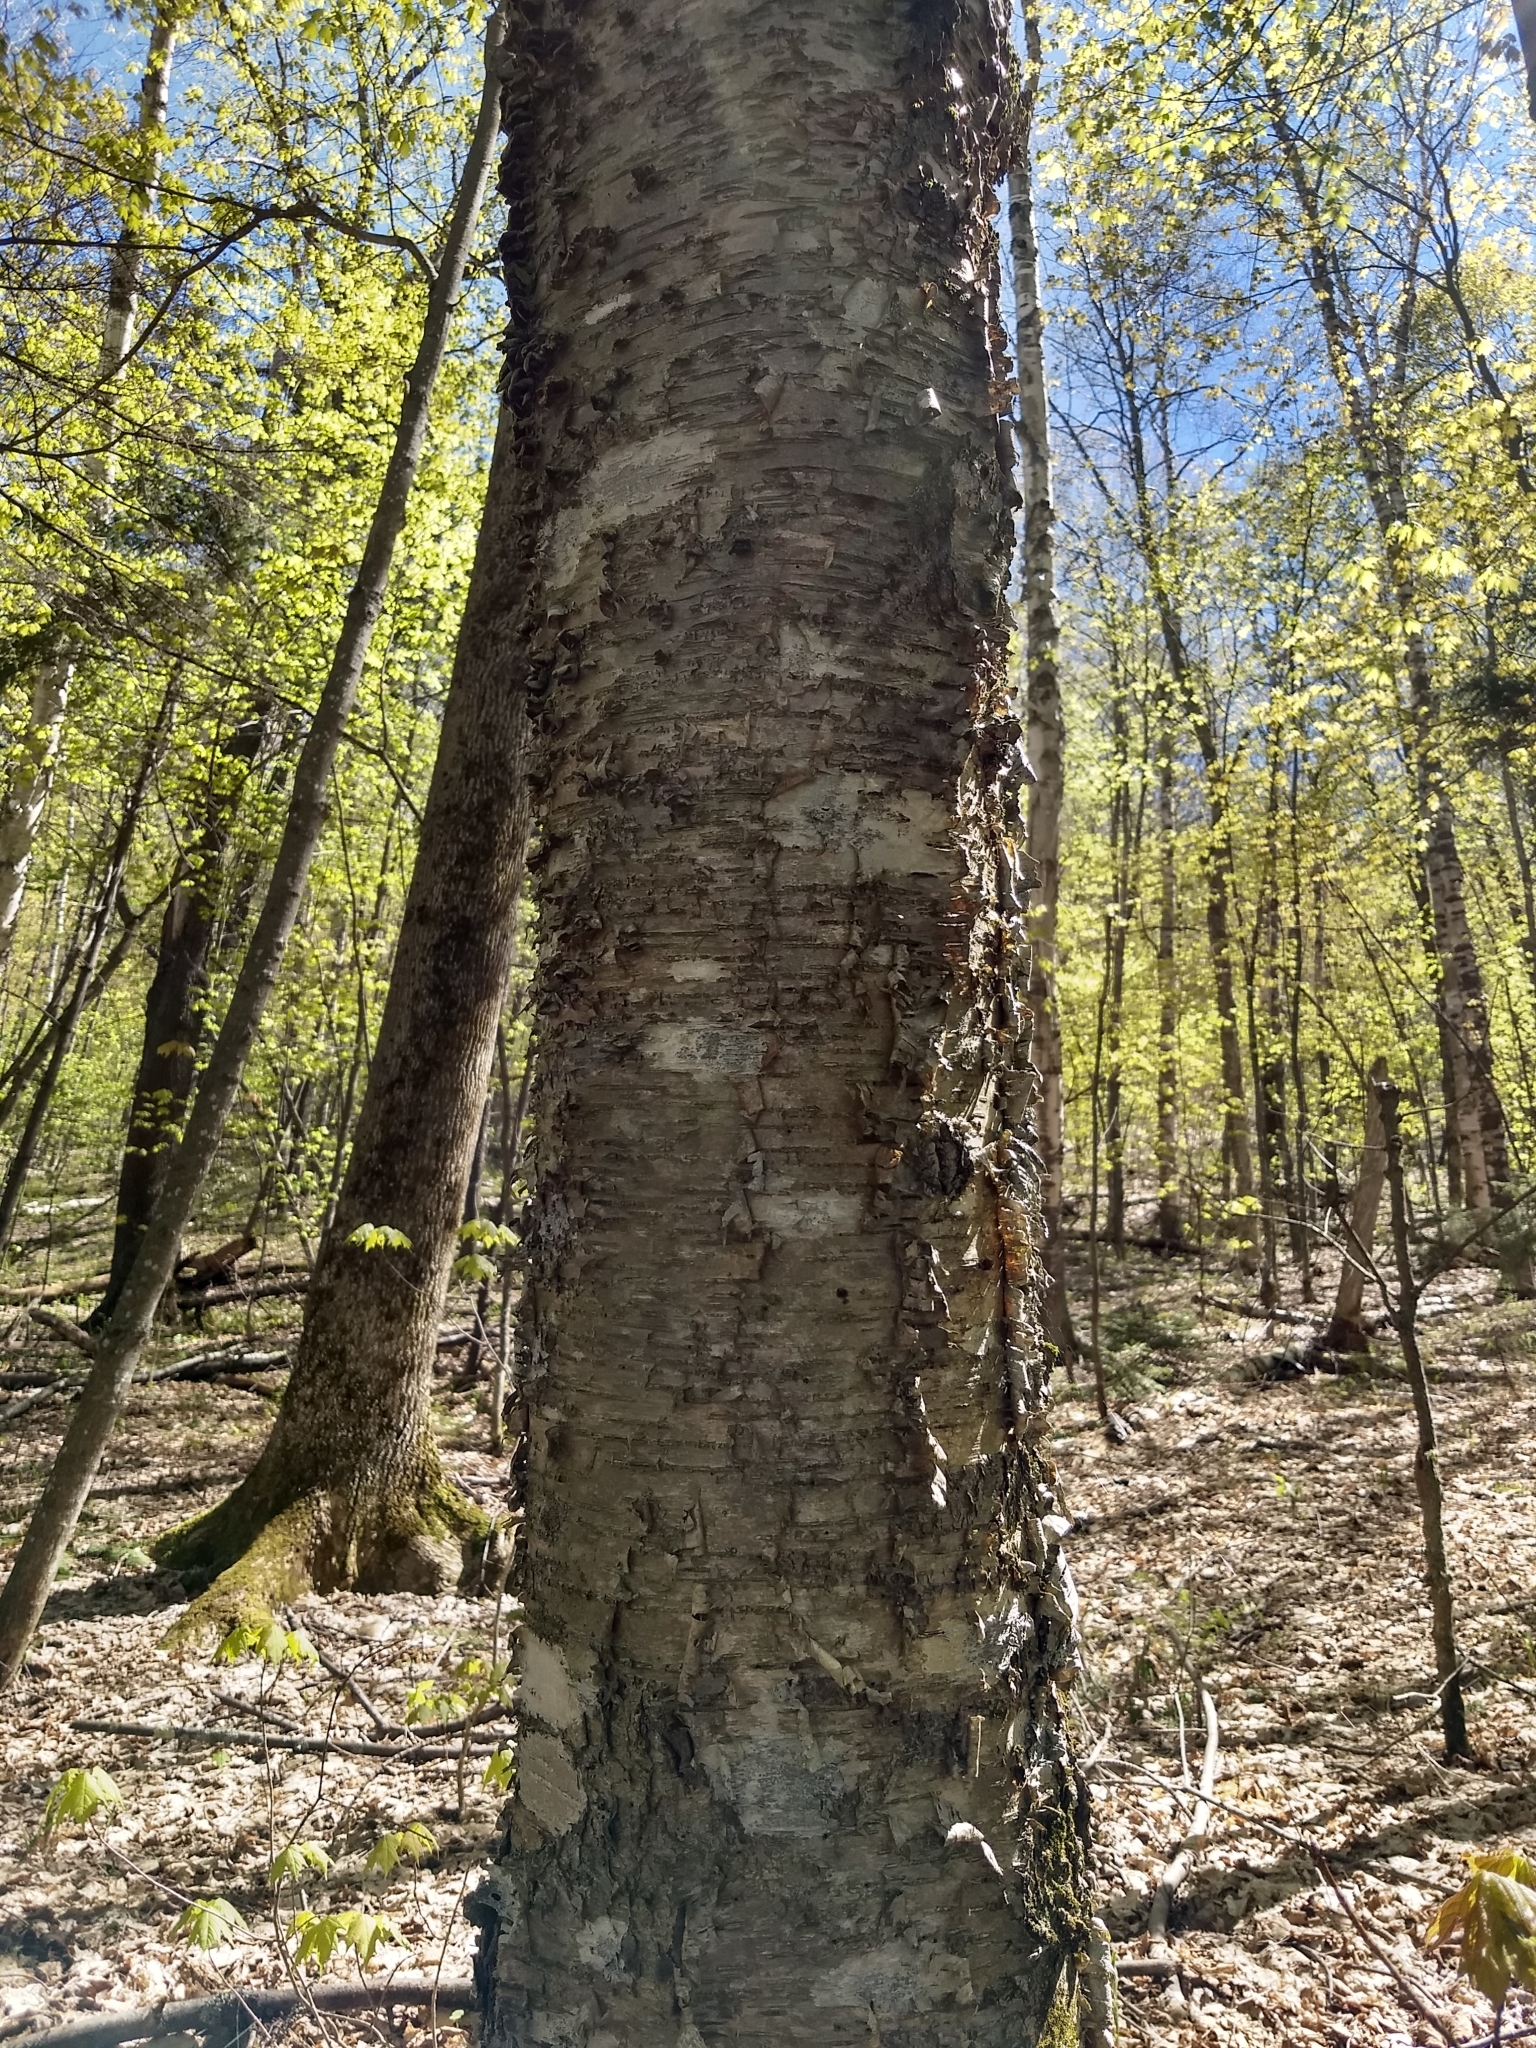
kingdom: Plantae
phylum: Tracheophyta
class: Magnoliopsida
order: Fagales
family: Betulaceae
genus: Betula
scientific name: Betula alleghaniensis
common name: Yellow birch
